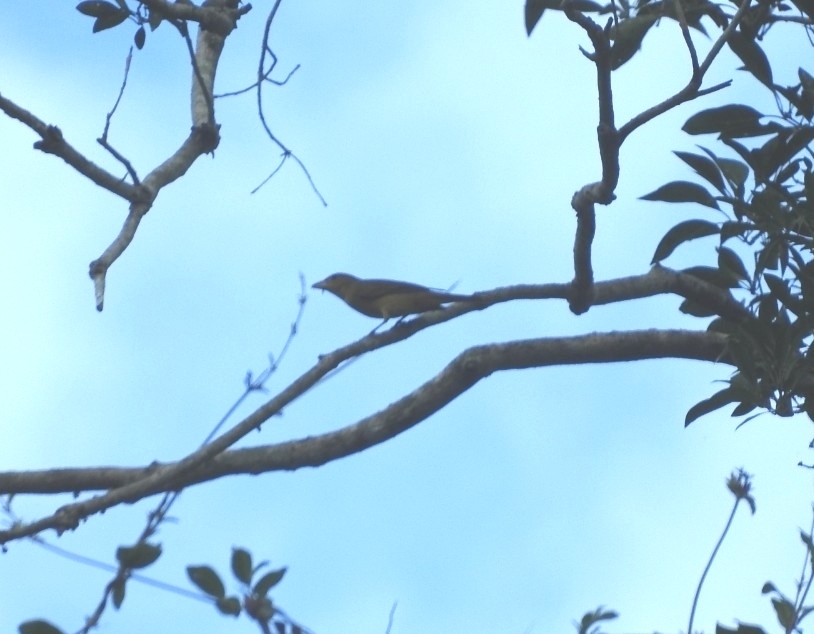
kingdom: Animalia
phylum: Chordata
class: Aves
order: Passeriformes
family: Cardinalidae
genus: Piranga
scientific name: Piranga rubra
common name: Summer tanager
